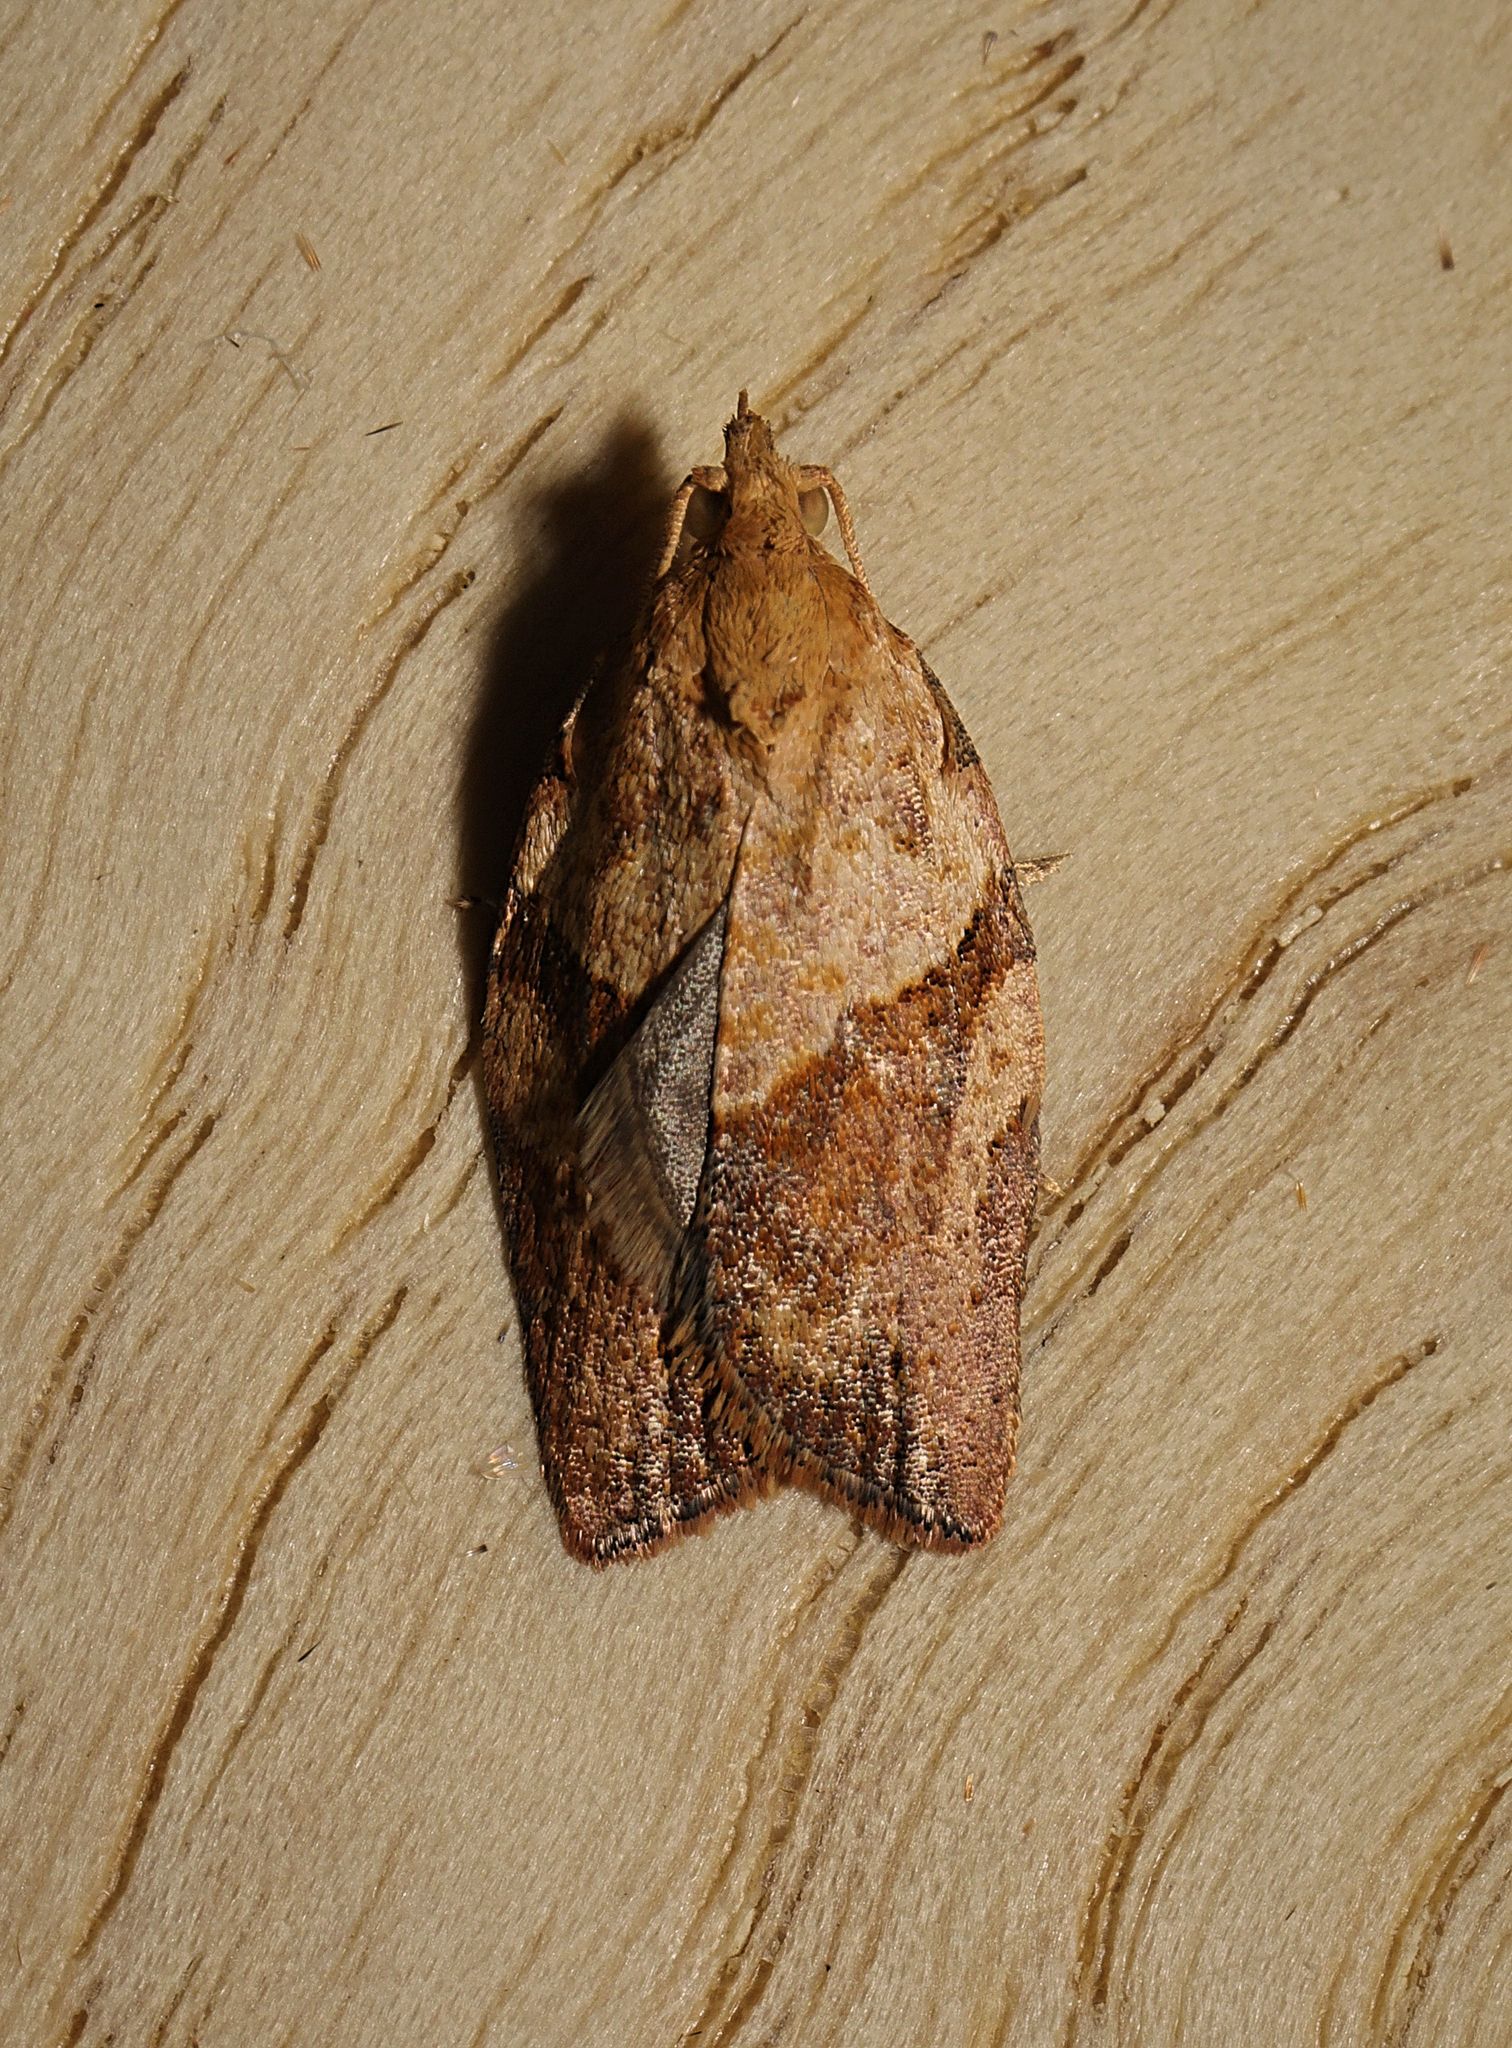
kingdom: Animalia
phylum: Arthropoda
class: Insecta
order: Lepidoptera
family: Tortricidae
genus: Epiphyas
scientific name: Epiphyas postvittana
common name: Light brown apple moth
